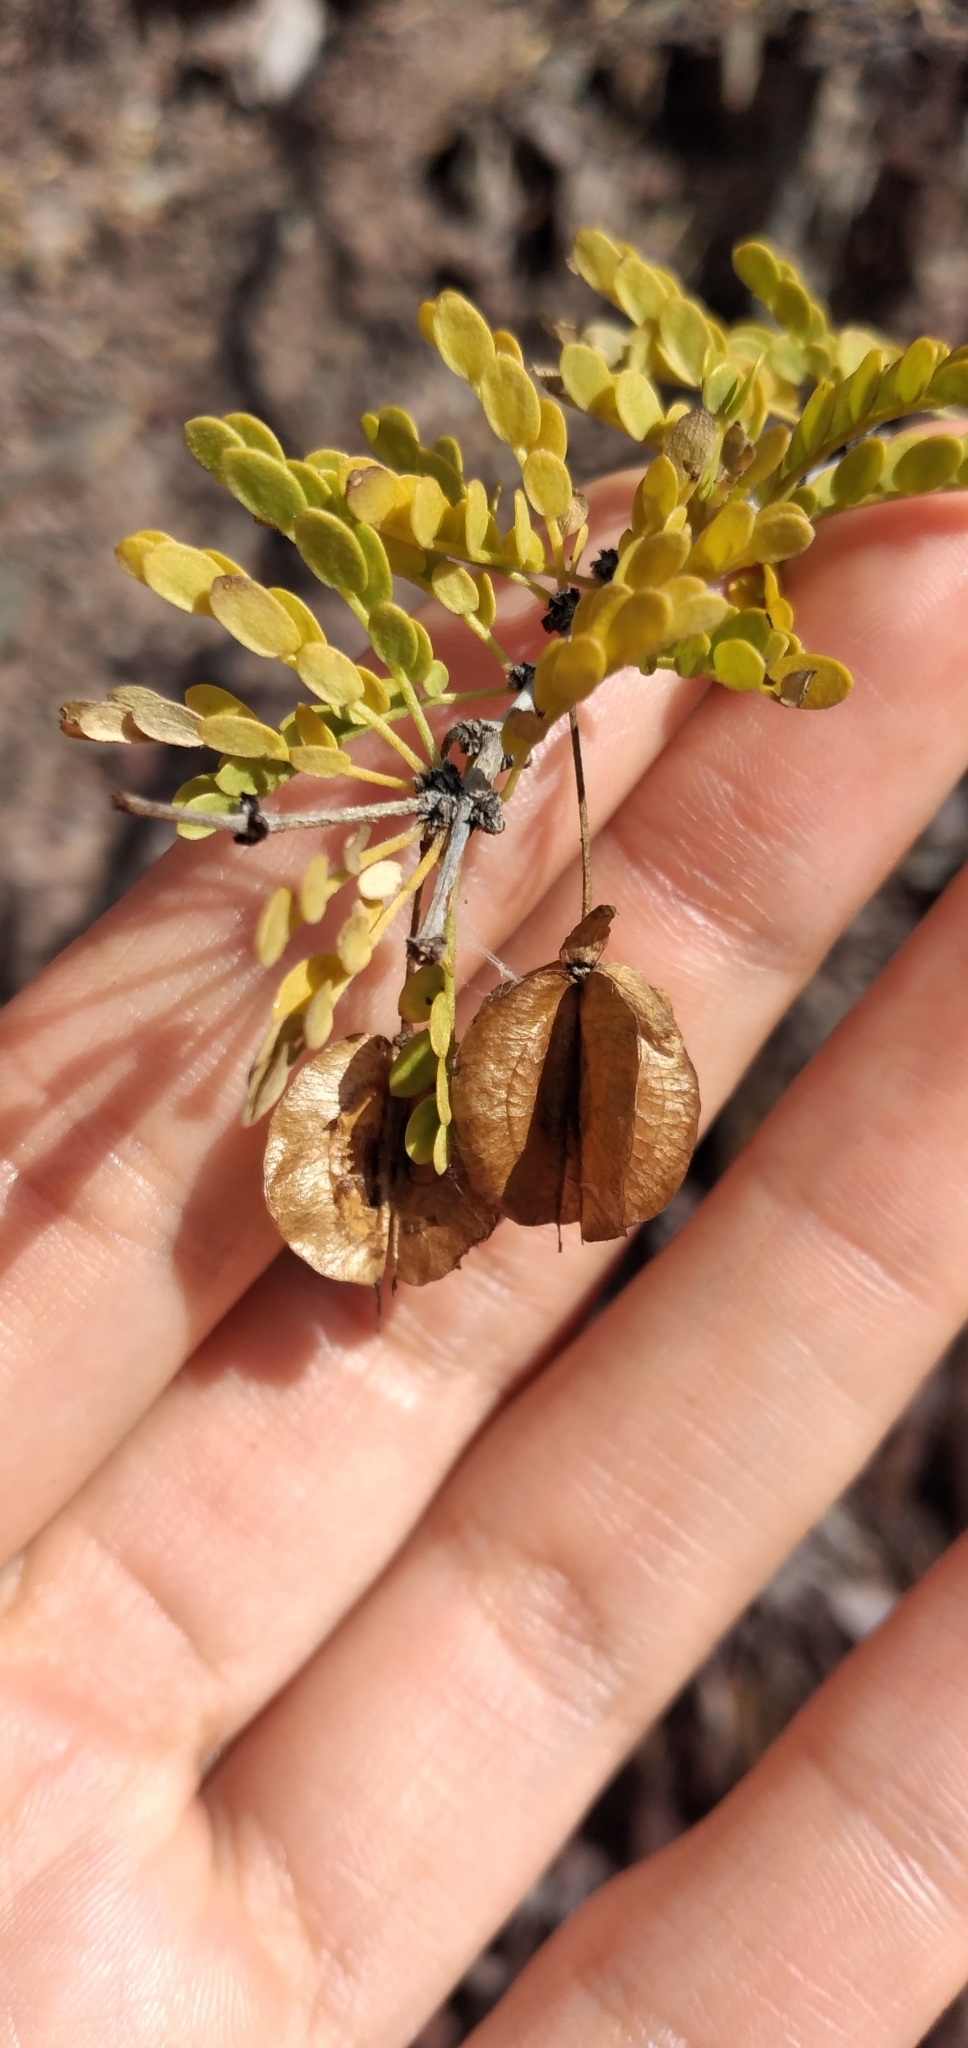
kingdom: Plantae
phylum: Tracheophyta
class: Magnoliopsida
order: Zygophyllales
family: Zygophyllaceae
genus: Bulnesia
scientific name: Bulnesia schickendantzii
